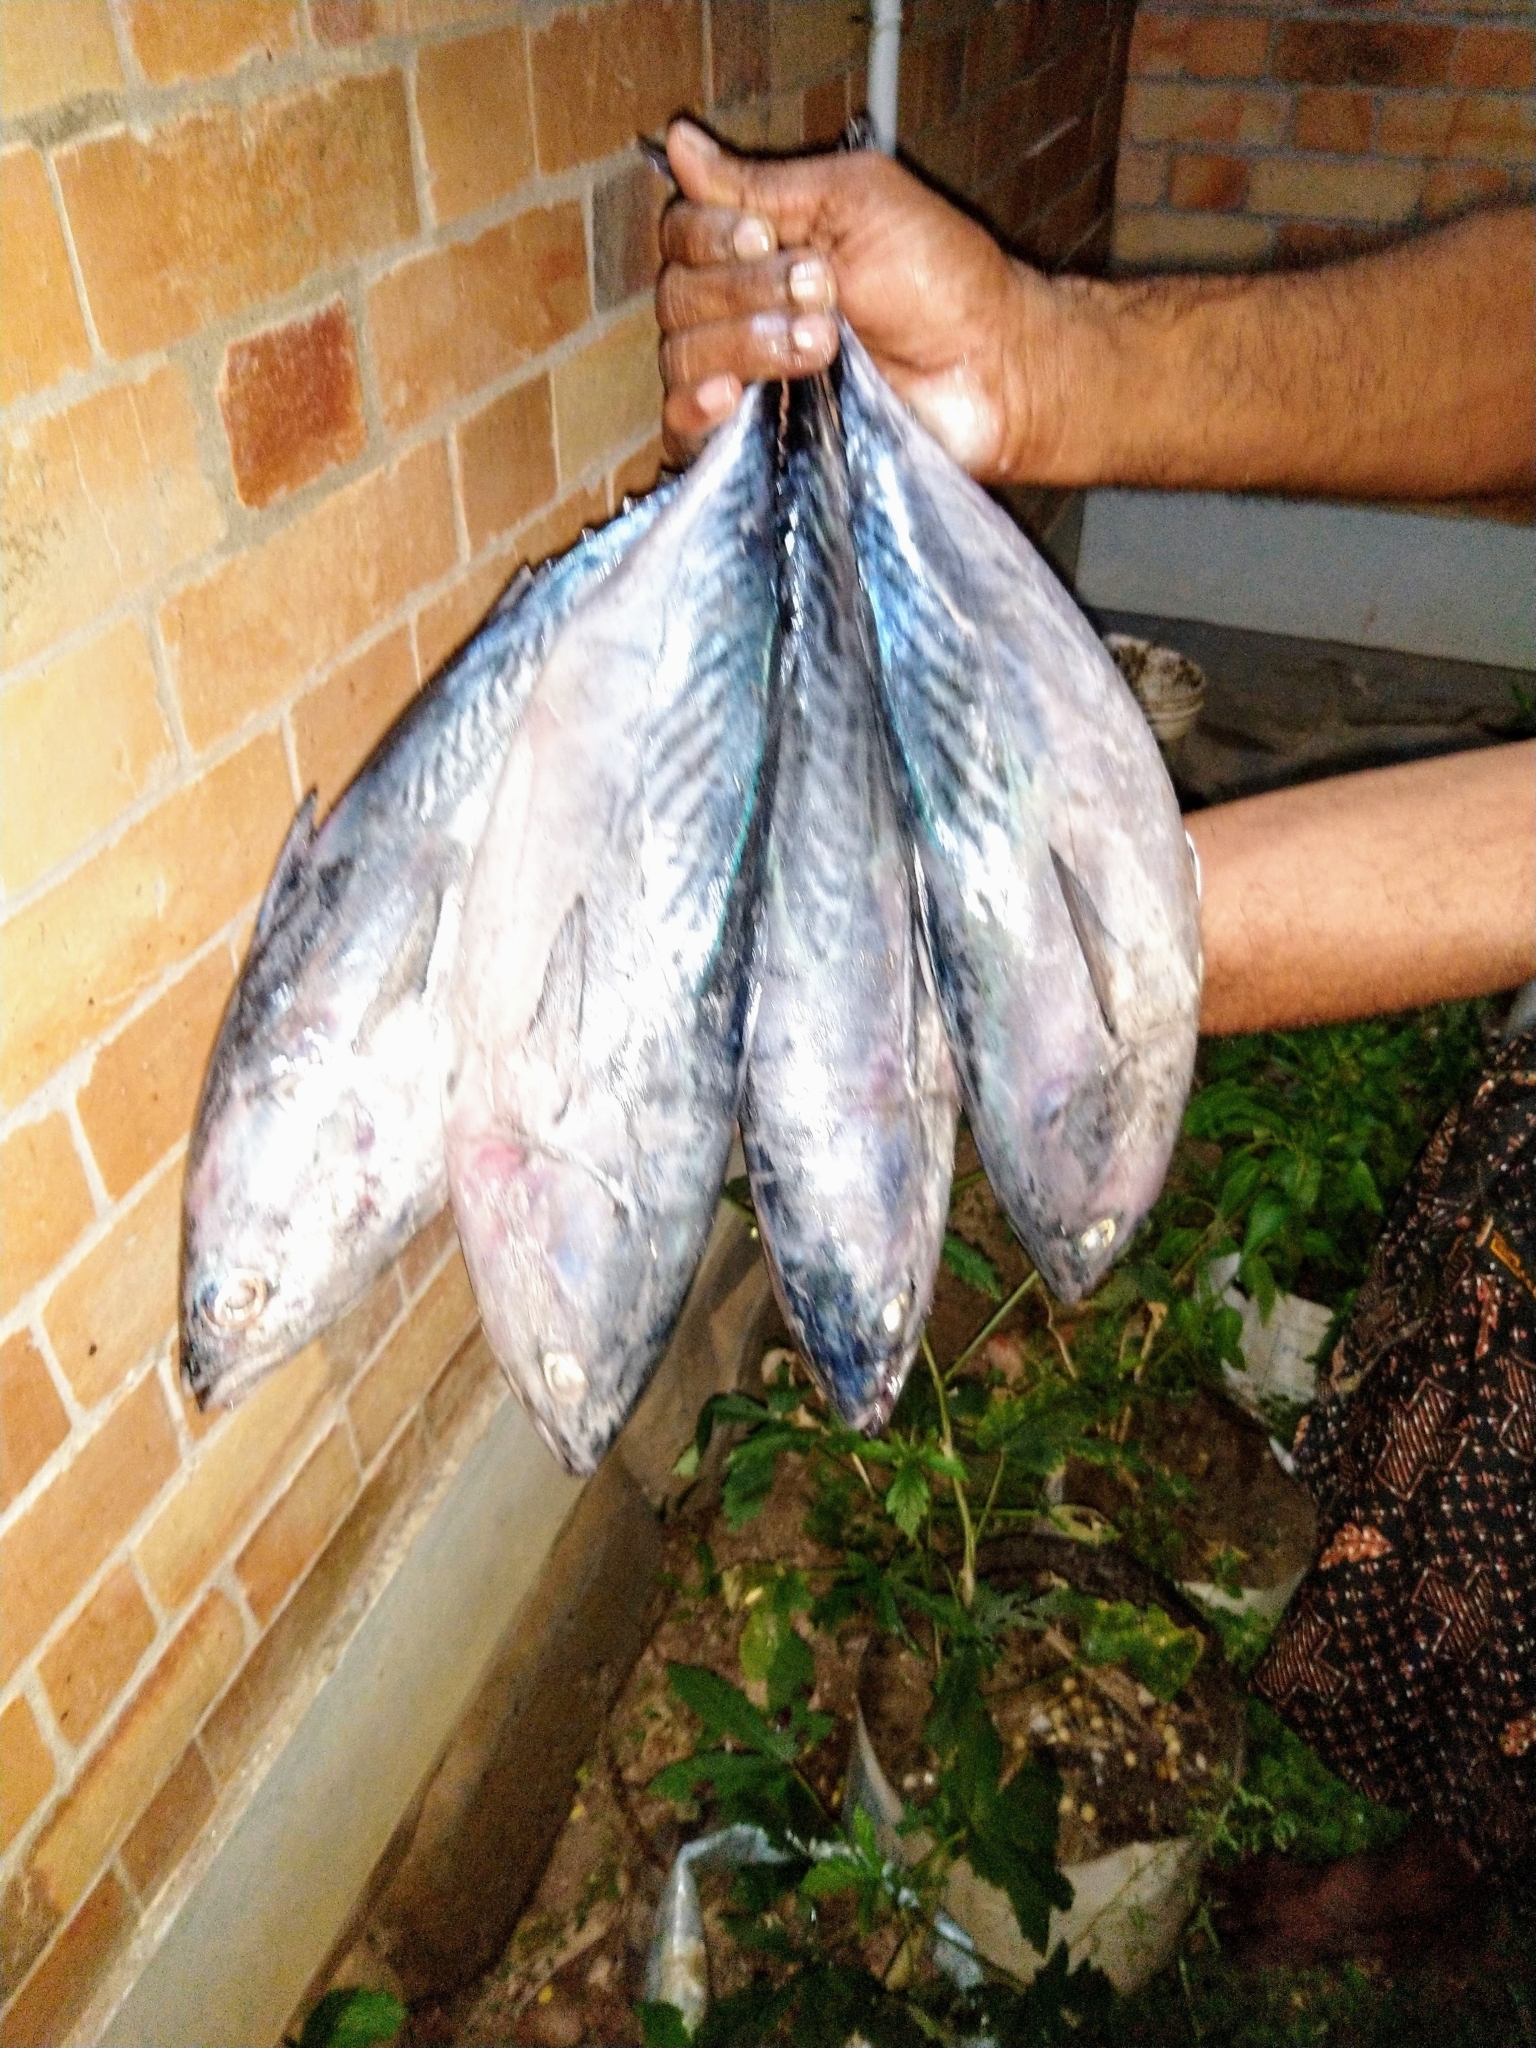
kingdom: Animalia
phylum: Chordata
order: Perciformes
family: Scombridae
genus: Euthynnus
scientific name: Euthynnus affinis
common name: Mackerel tuna
